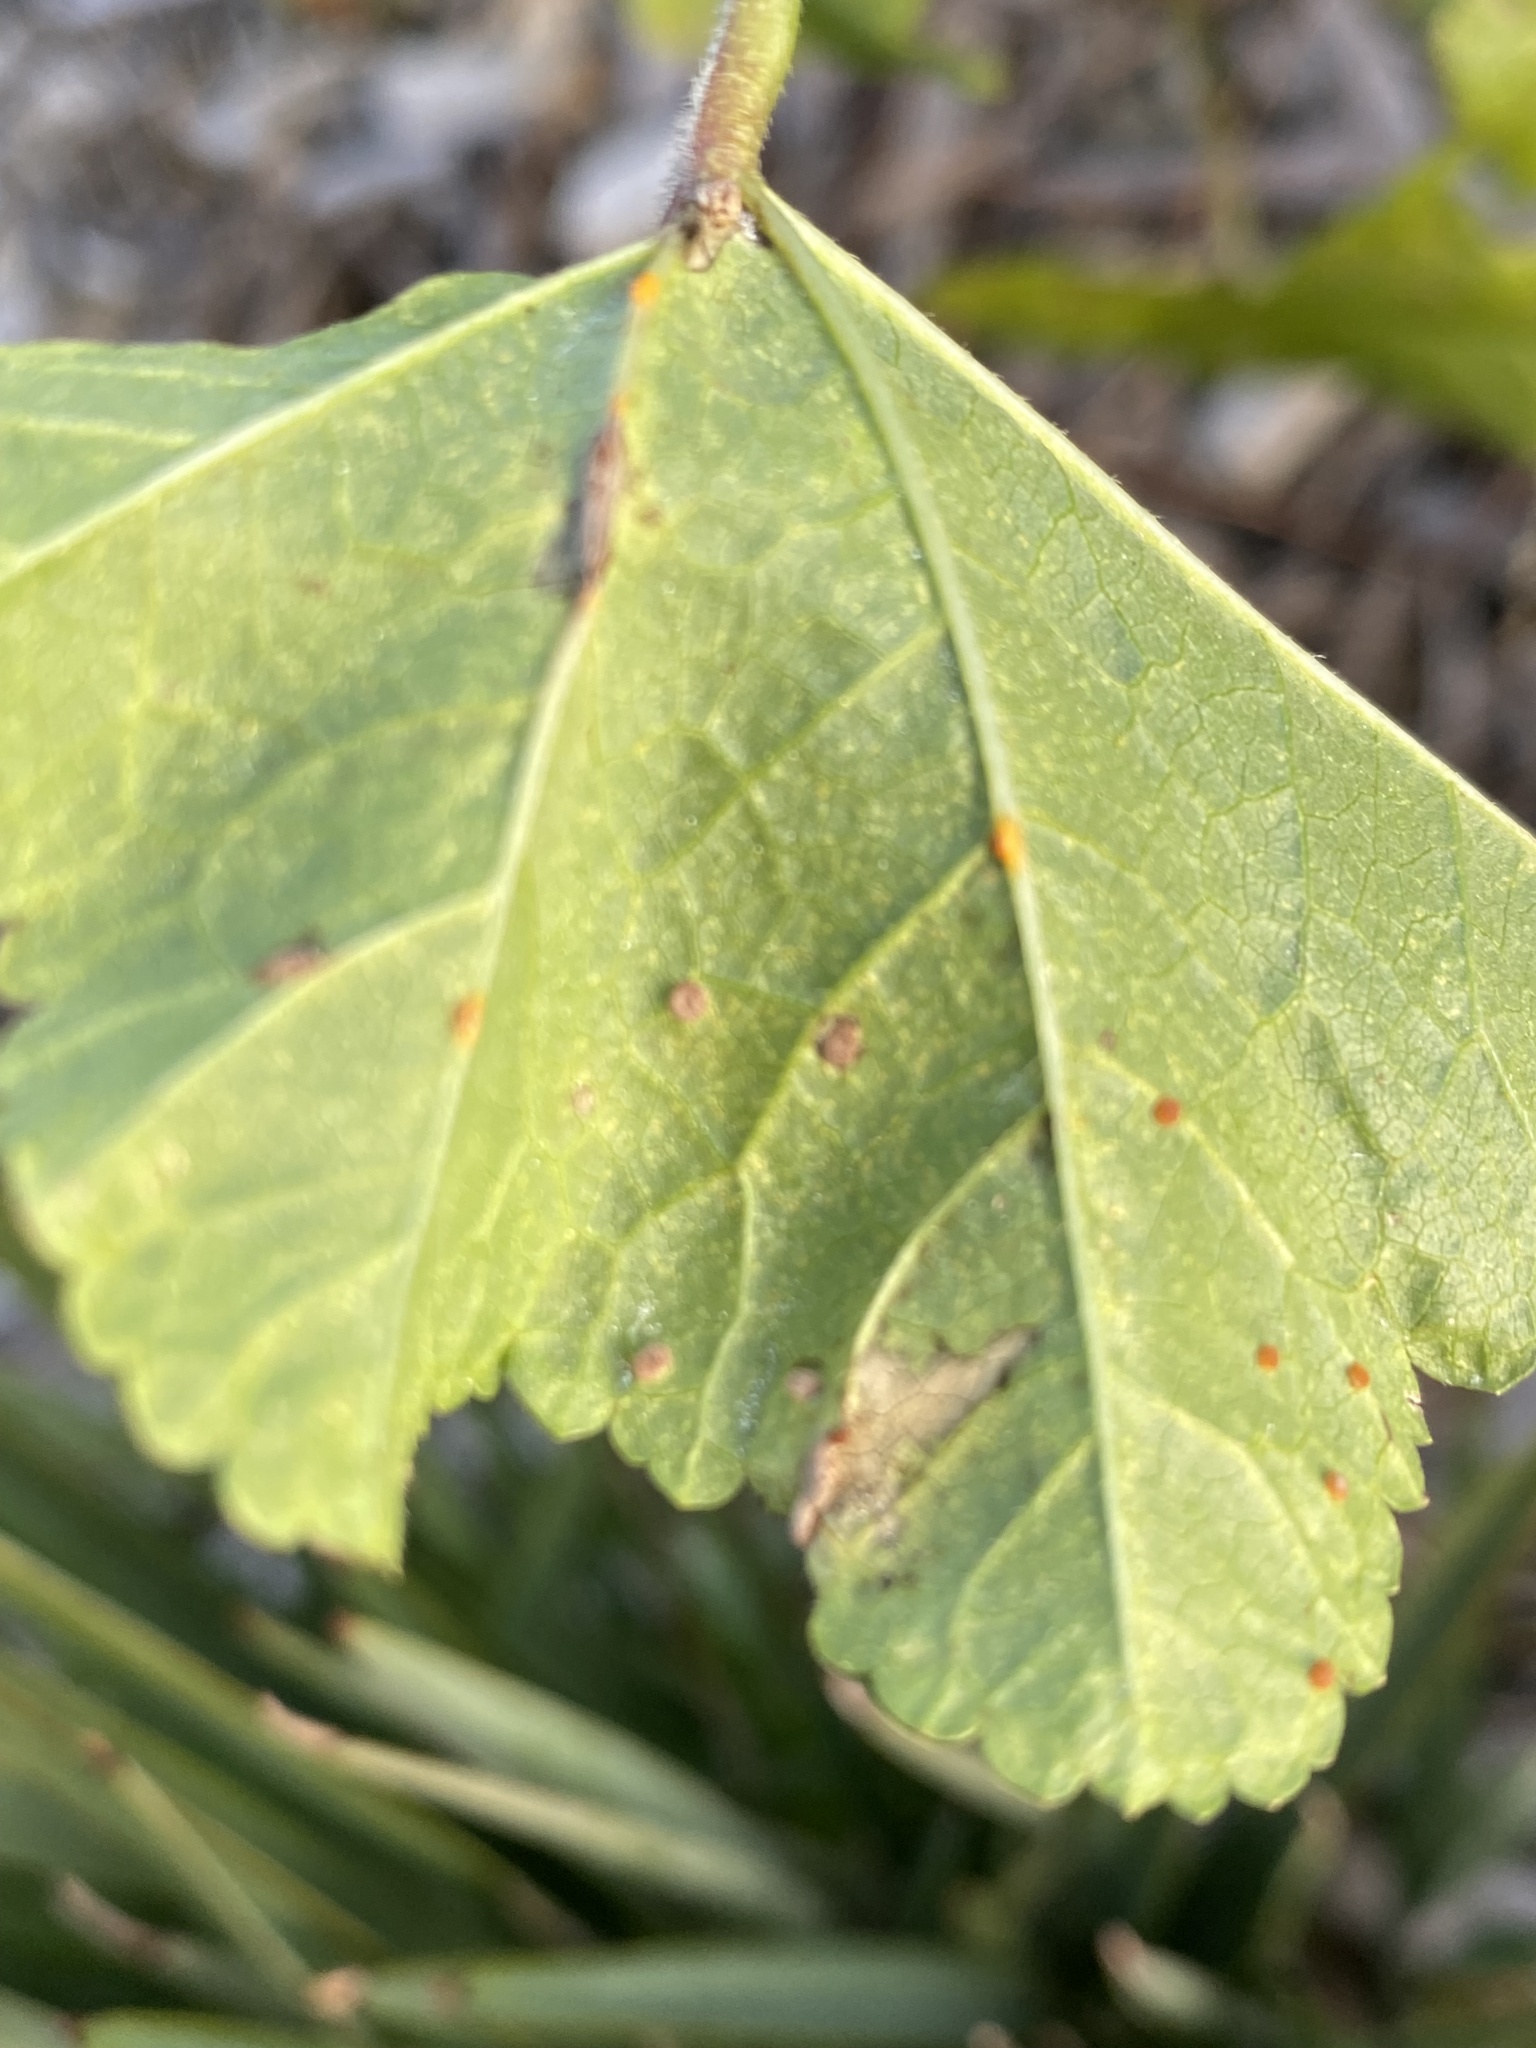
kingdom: Fungi
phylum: Basidiomycota
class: Pucciniomycetes
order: Pucciniales
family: Pucciniaceae
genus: Puccinia
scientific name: Puccinia malvacearum
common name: Hollyhock rust
